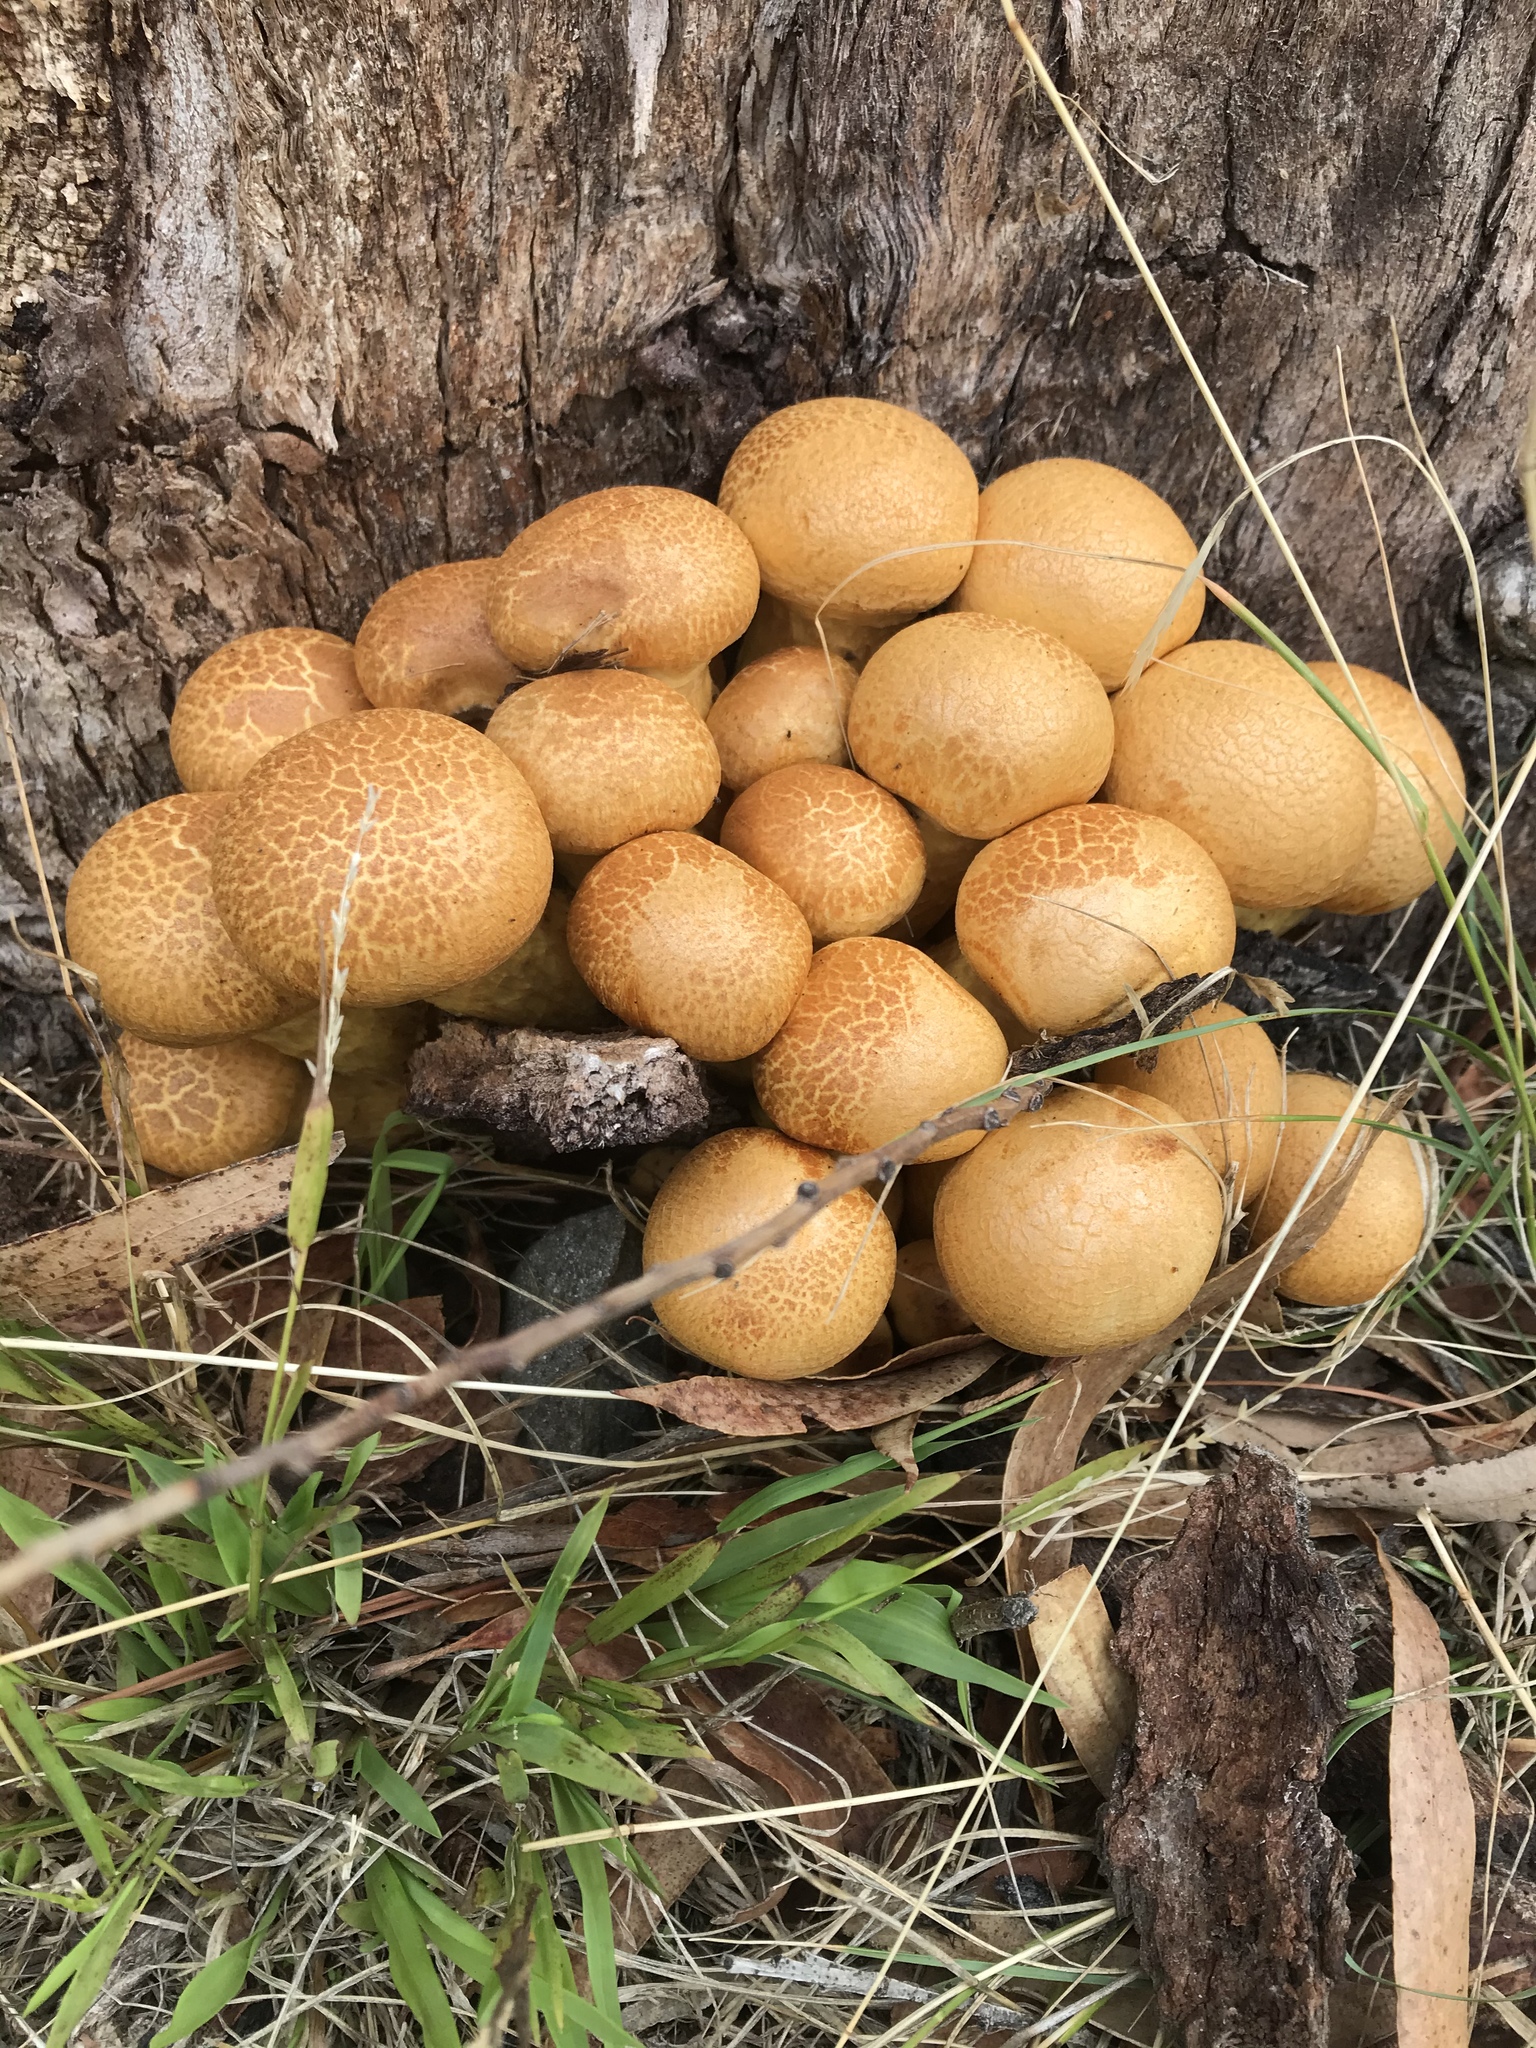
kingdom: Fungi
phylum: Basidiomycota
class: Agaricomycetes
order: Agaricales
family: Hymenogastraceae
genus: Gymnopilus
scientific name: Gymnopilus junonius
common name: Spectacular rustgill
